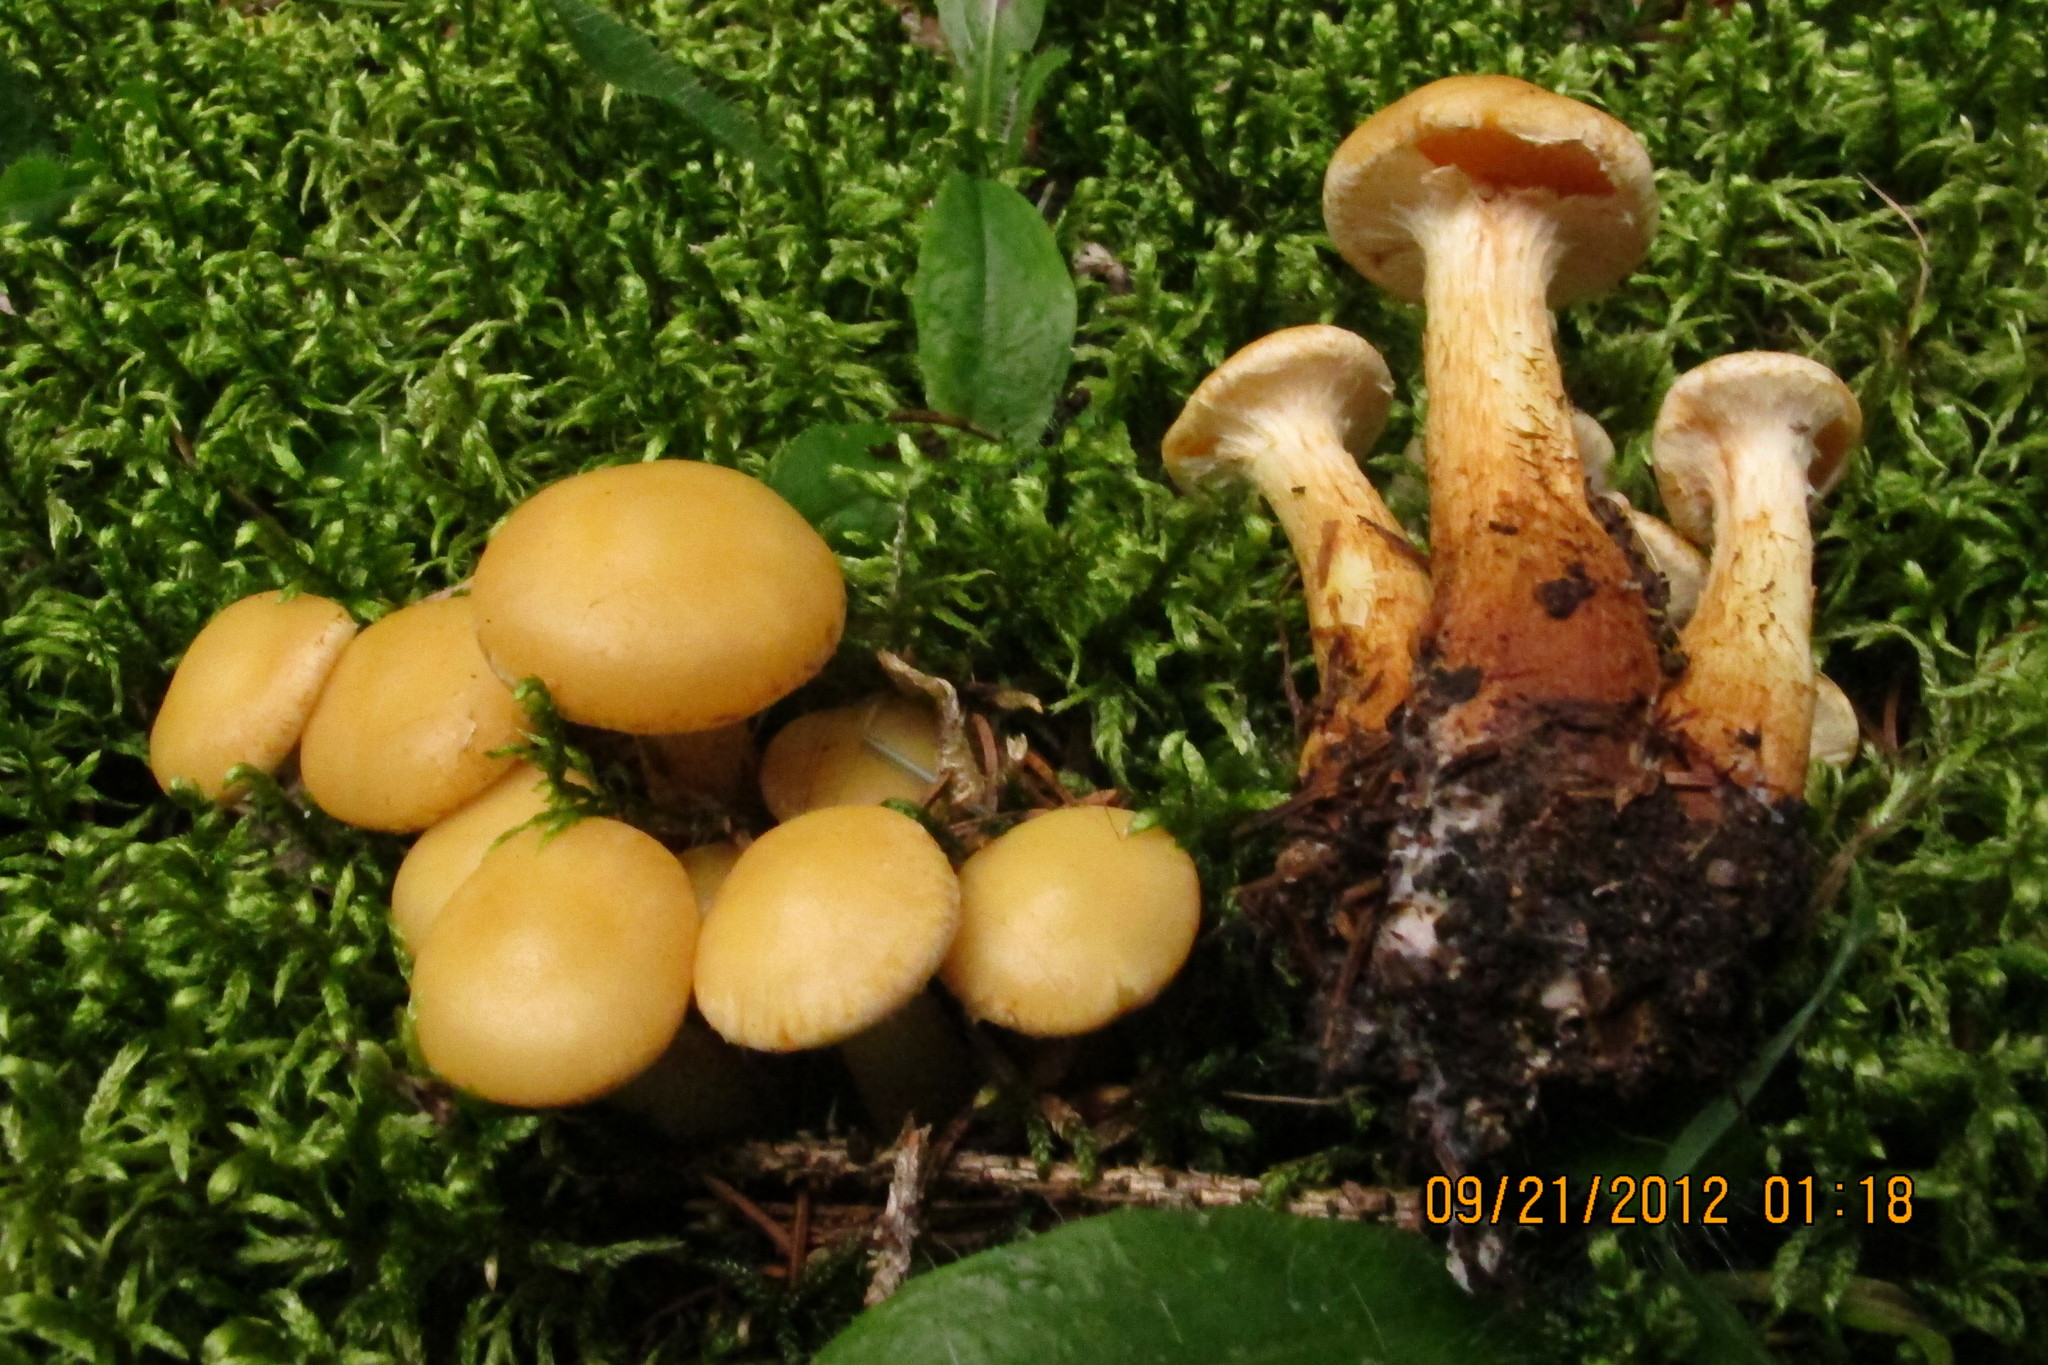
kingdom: Fungi
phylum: Basidiomycota
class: Agaricomycetes
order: Agaricales
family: Hymenogastraceae
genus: Flammula
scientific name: Flammula alnicola
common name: Alder scalycap
